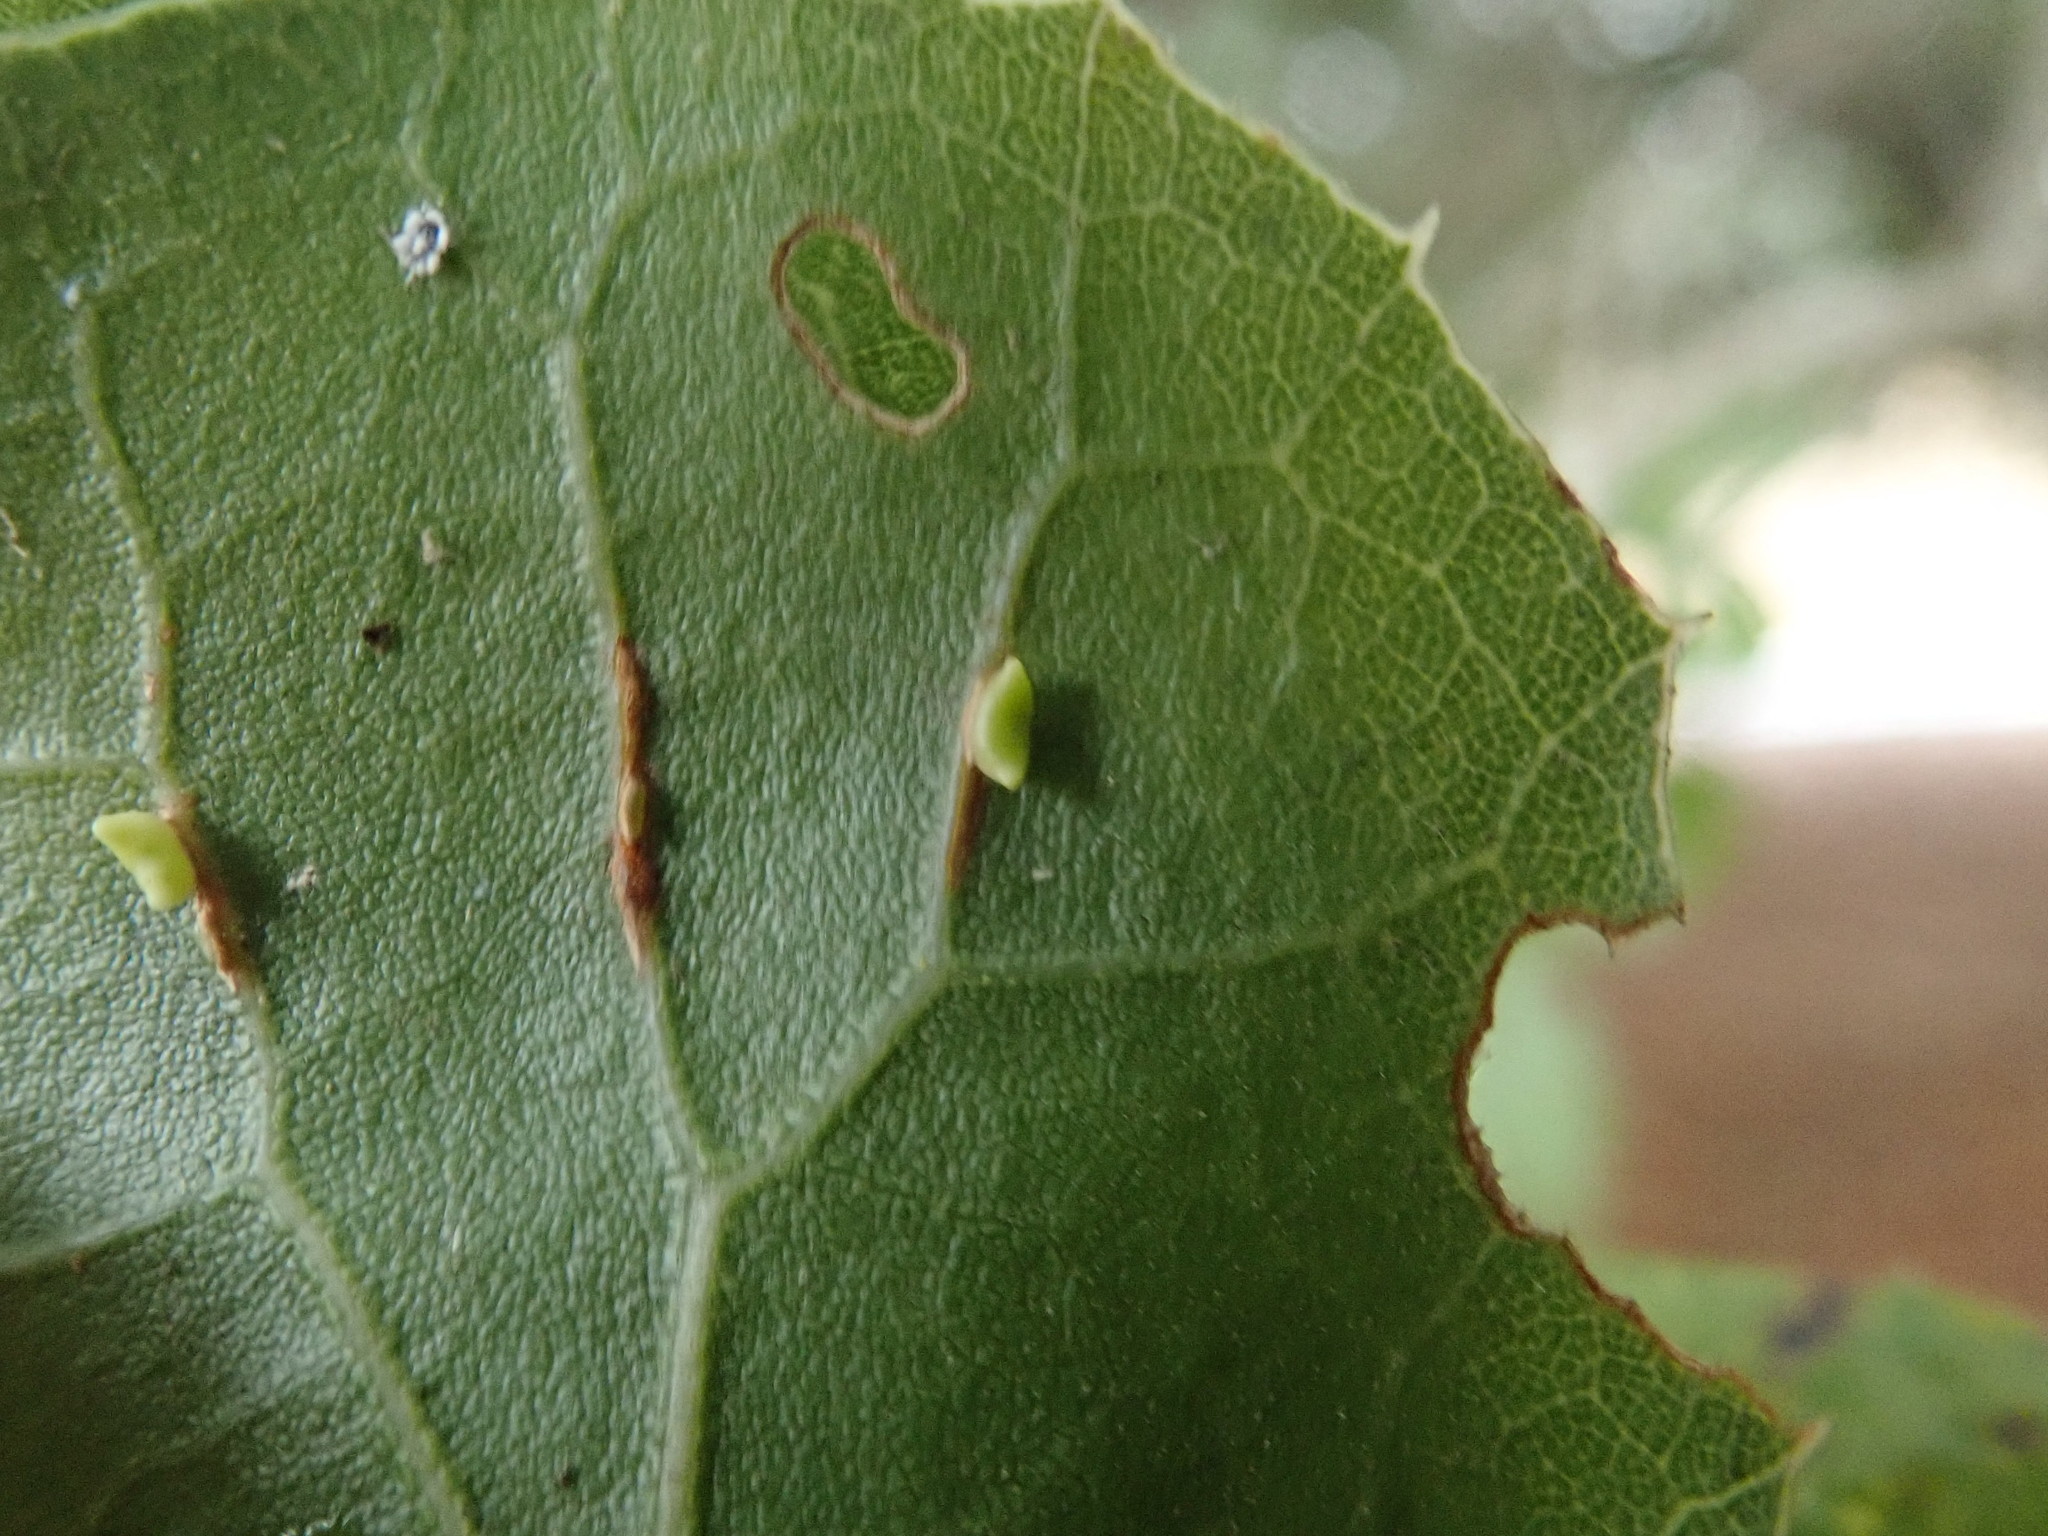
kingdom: Animalia
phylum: Arthropoda
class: Insecta
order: Hymenoptera
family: Cynipidae
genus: Dryocosmus
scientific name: Dryocosmus
